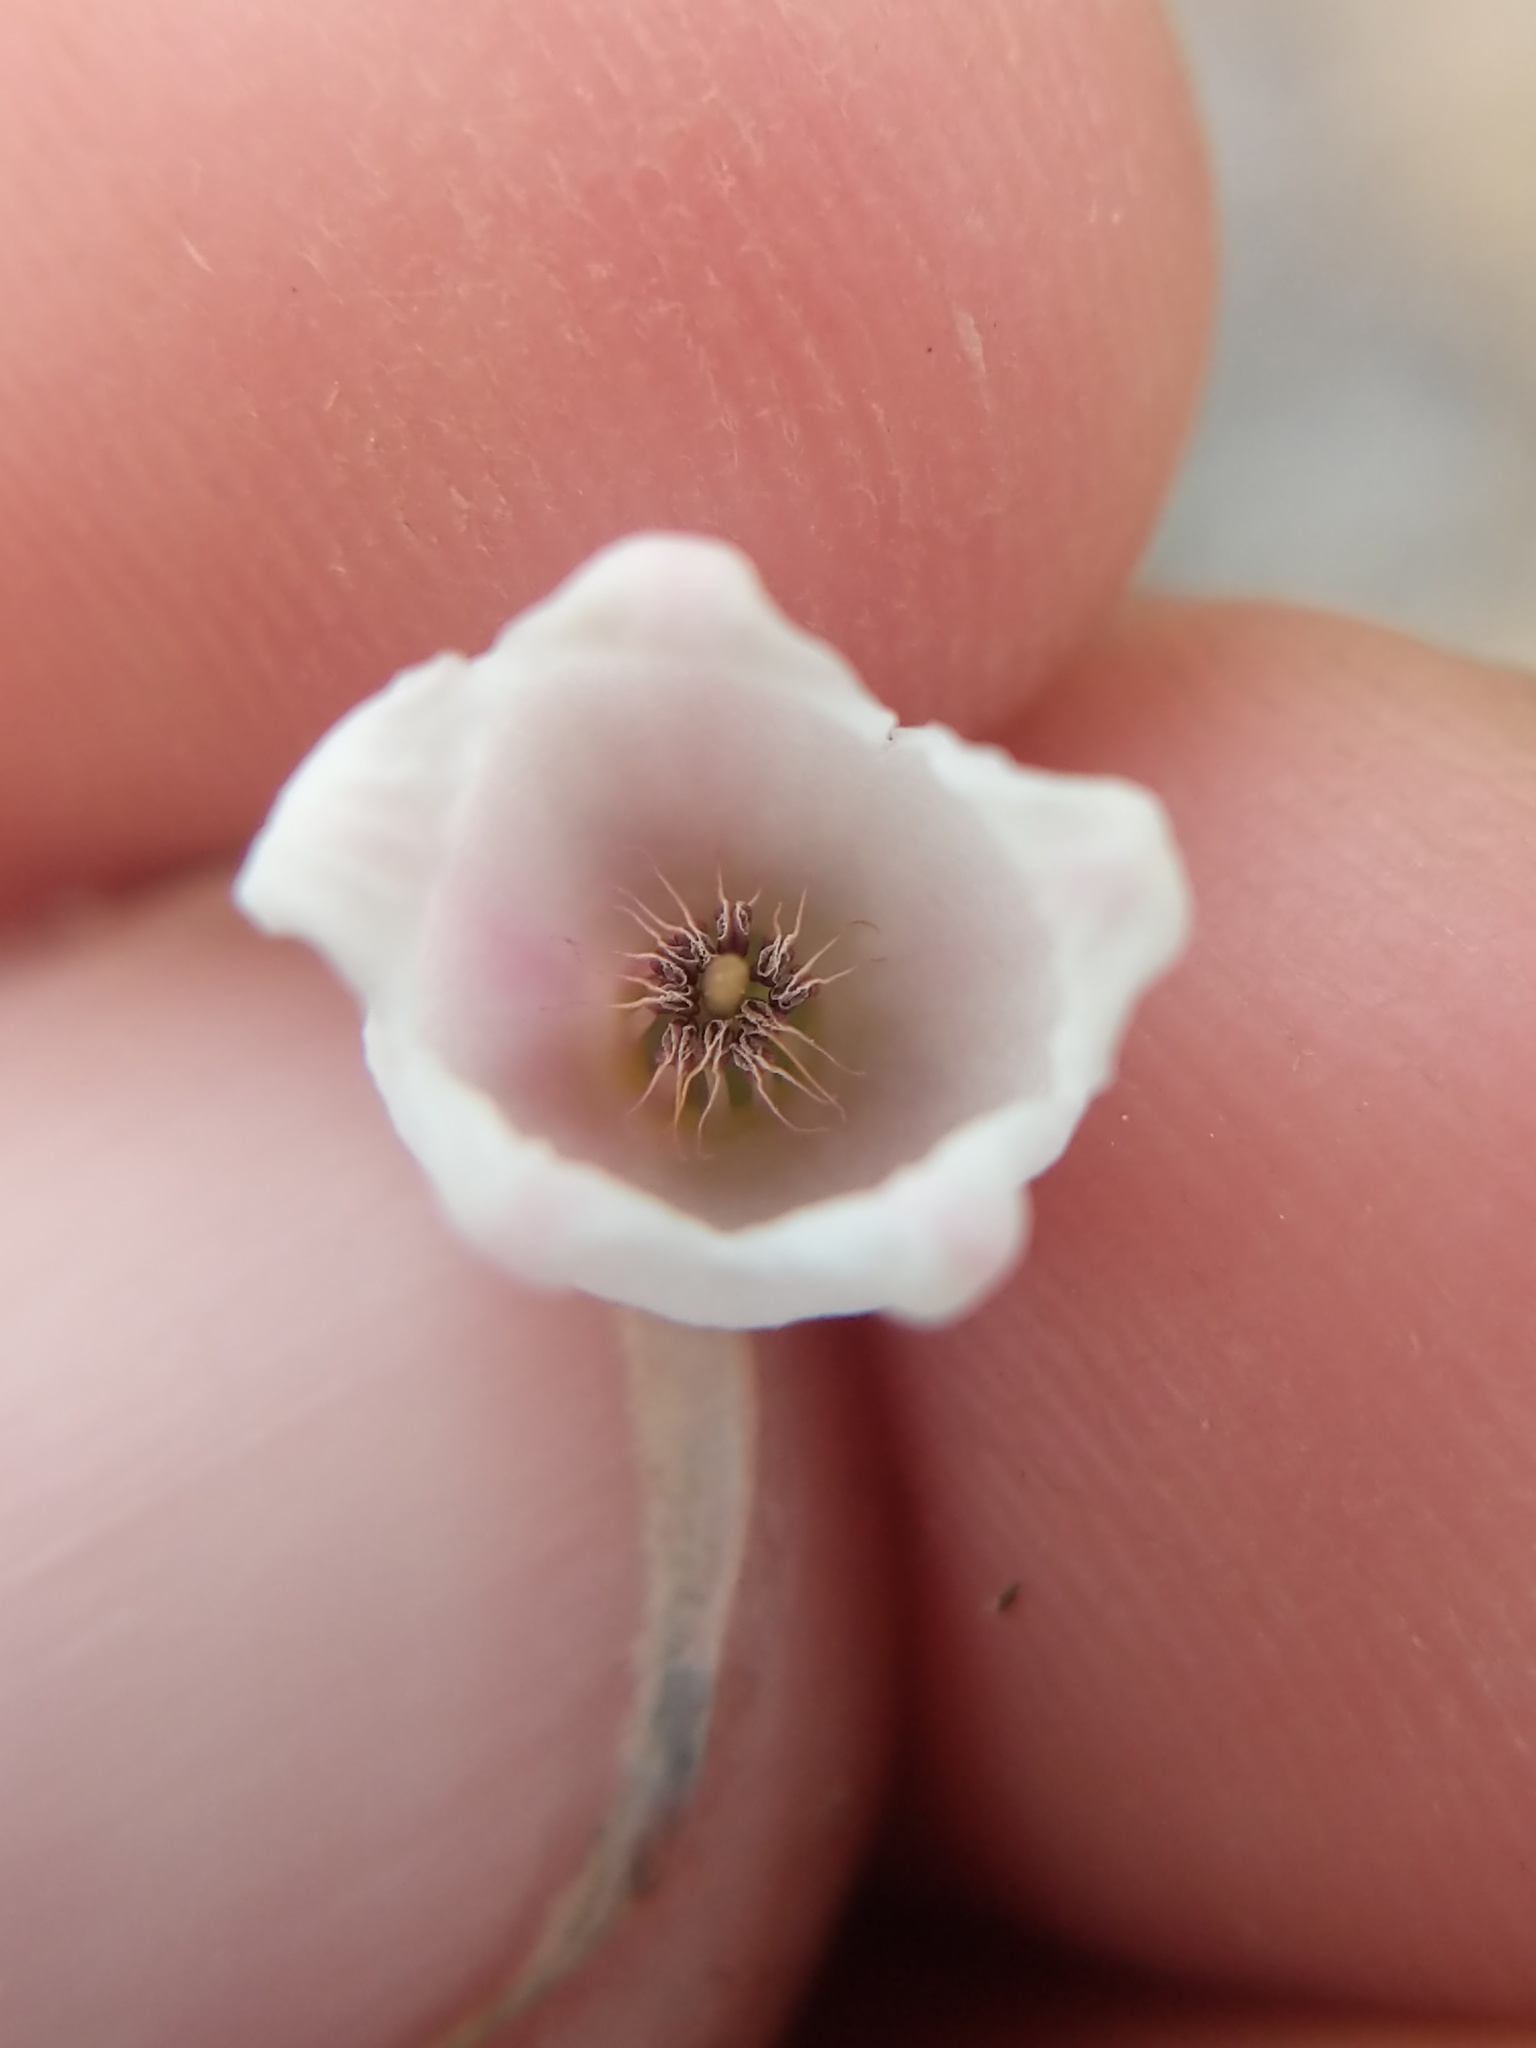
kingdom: Plantae
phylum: Tracheophyta
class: Magnoliopsida
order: Ericales
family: Ericaceae
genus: Cassiope
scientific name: Cassiope mertensiana
